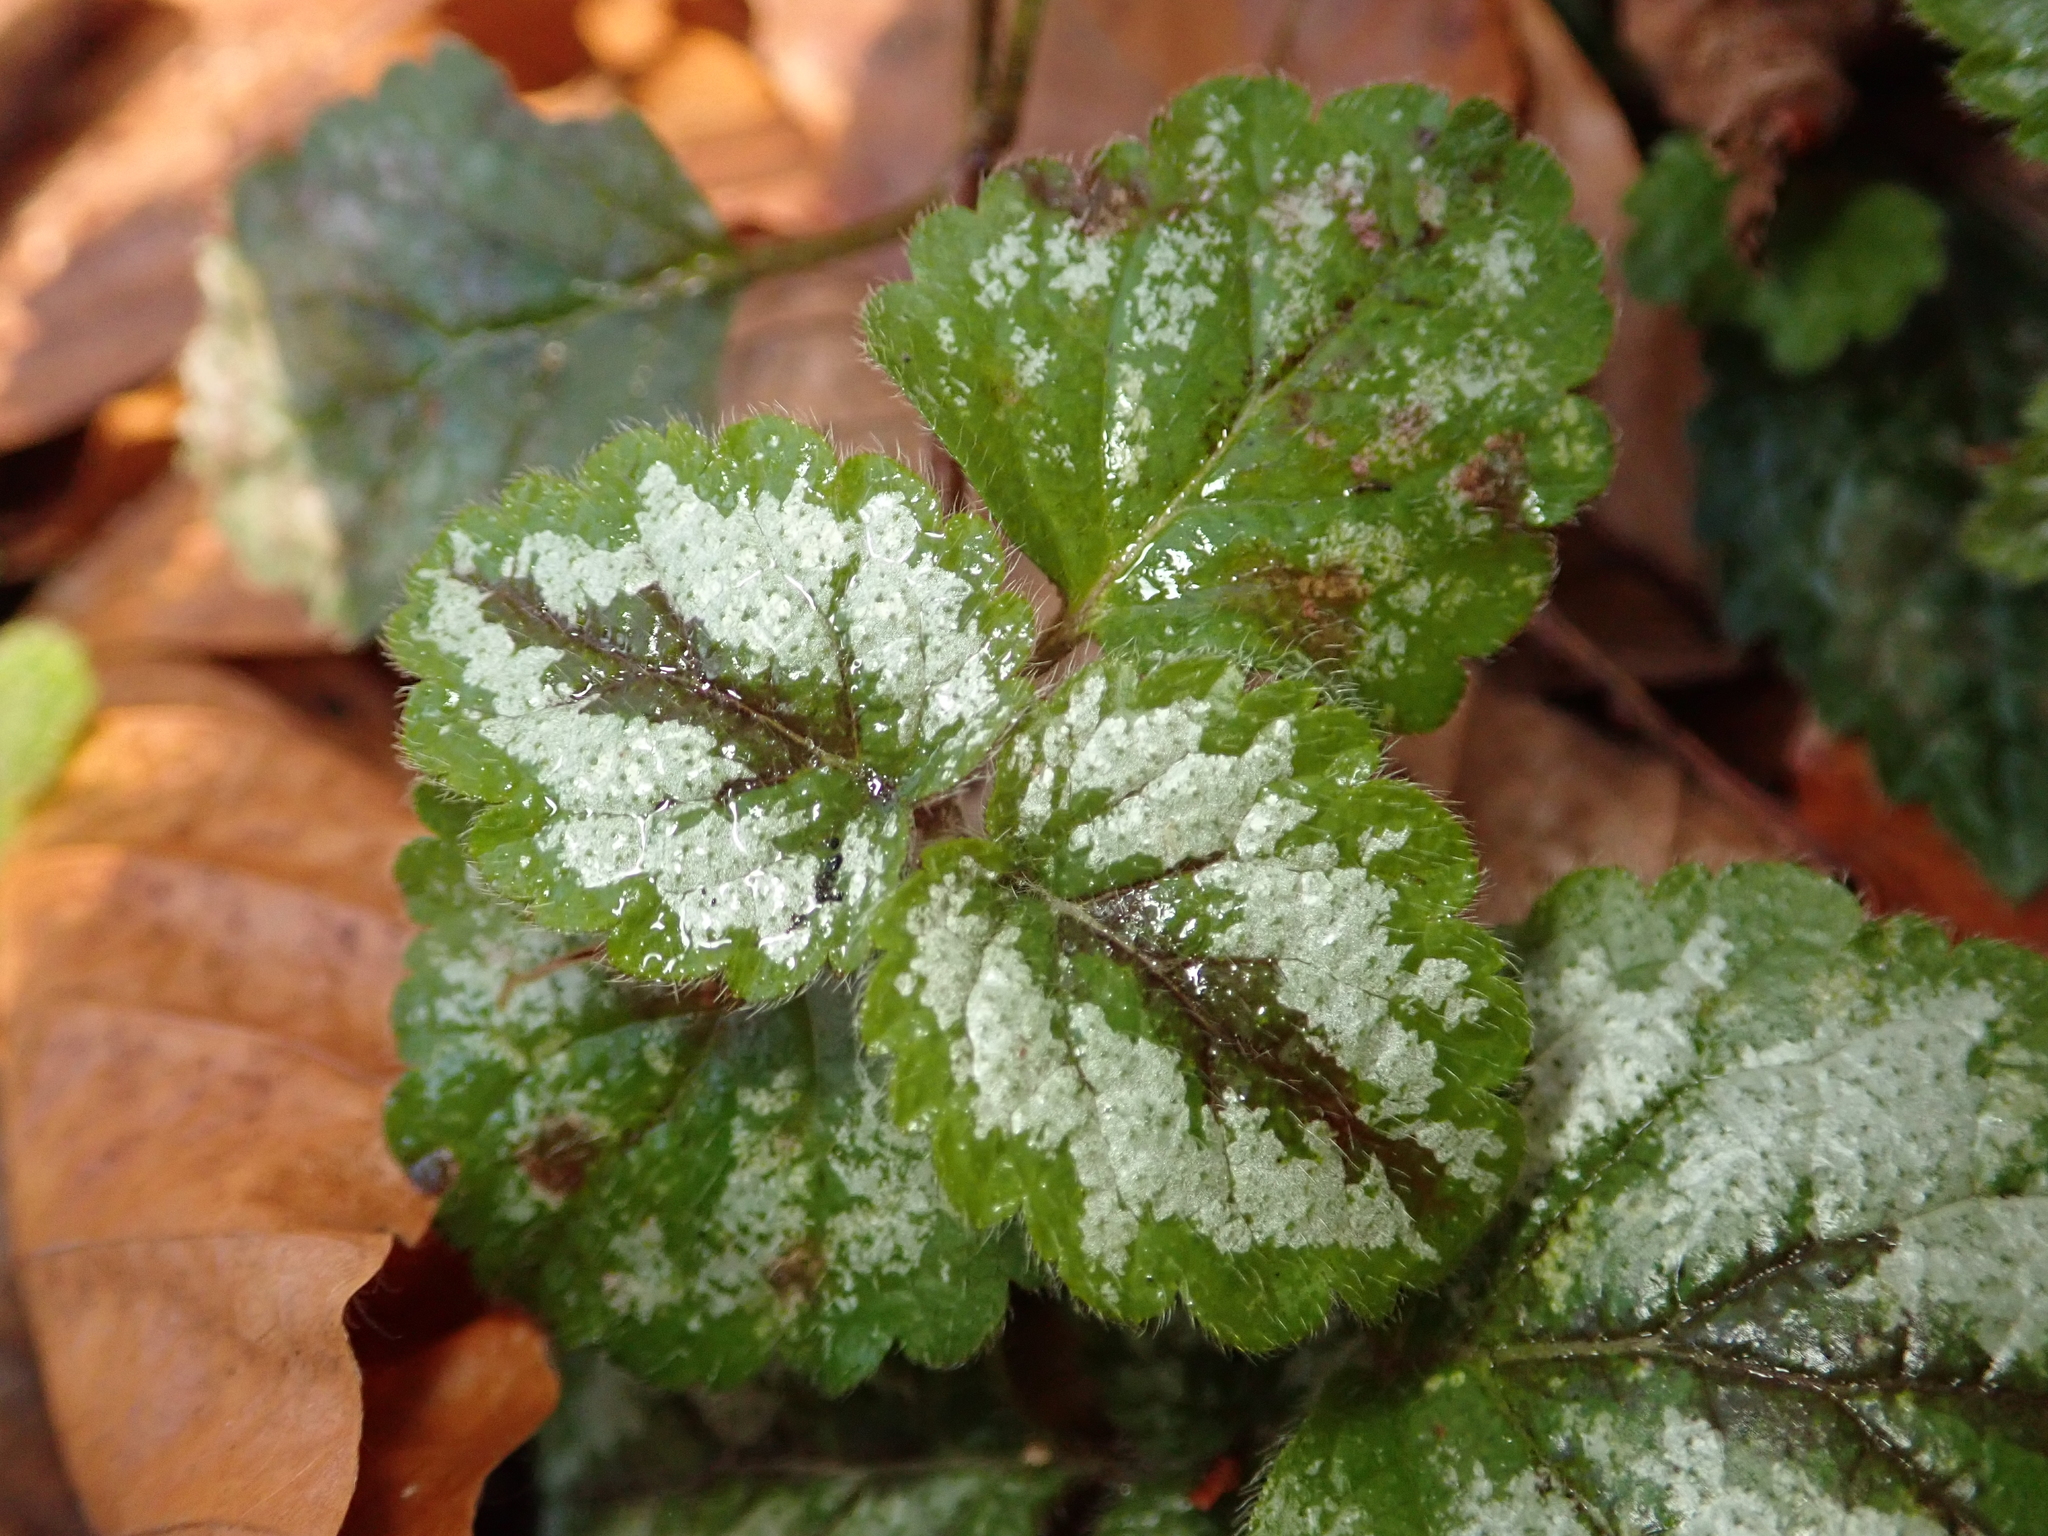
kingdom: Plantae
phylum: Tracheophyta
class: Magnoliopsida
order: Lamiales
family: Lamiaceae
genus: Lamium
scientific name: Lamium galeobdolon
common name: Yellow archangel
